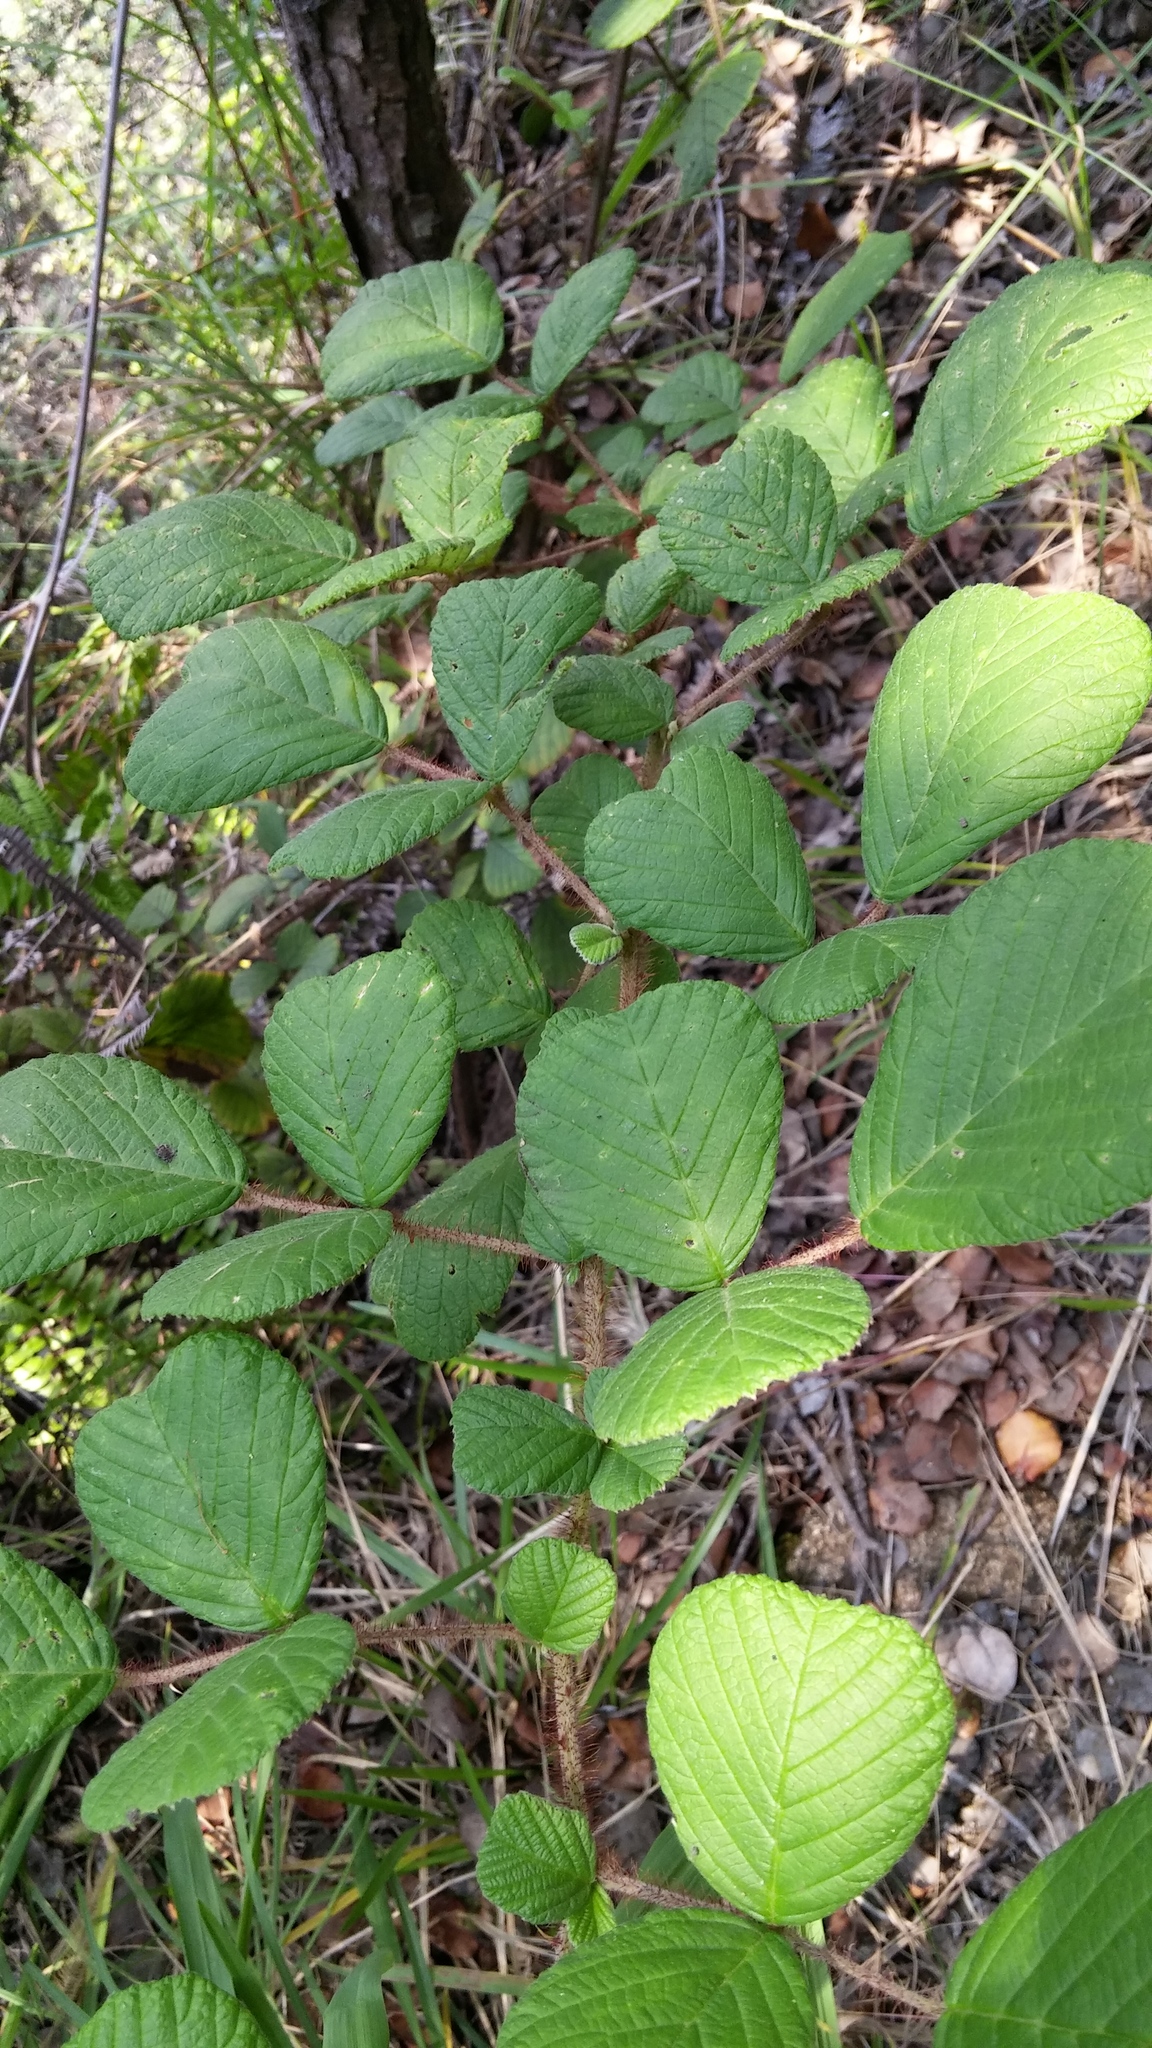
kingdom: Plantae
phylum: Tracheophyta
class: Magnoliopsida
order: Rosales
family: Rosaceae
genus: Rubus
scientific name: Rubus ellipticus
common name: Cheeseberry
